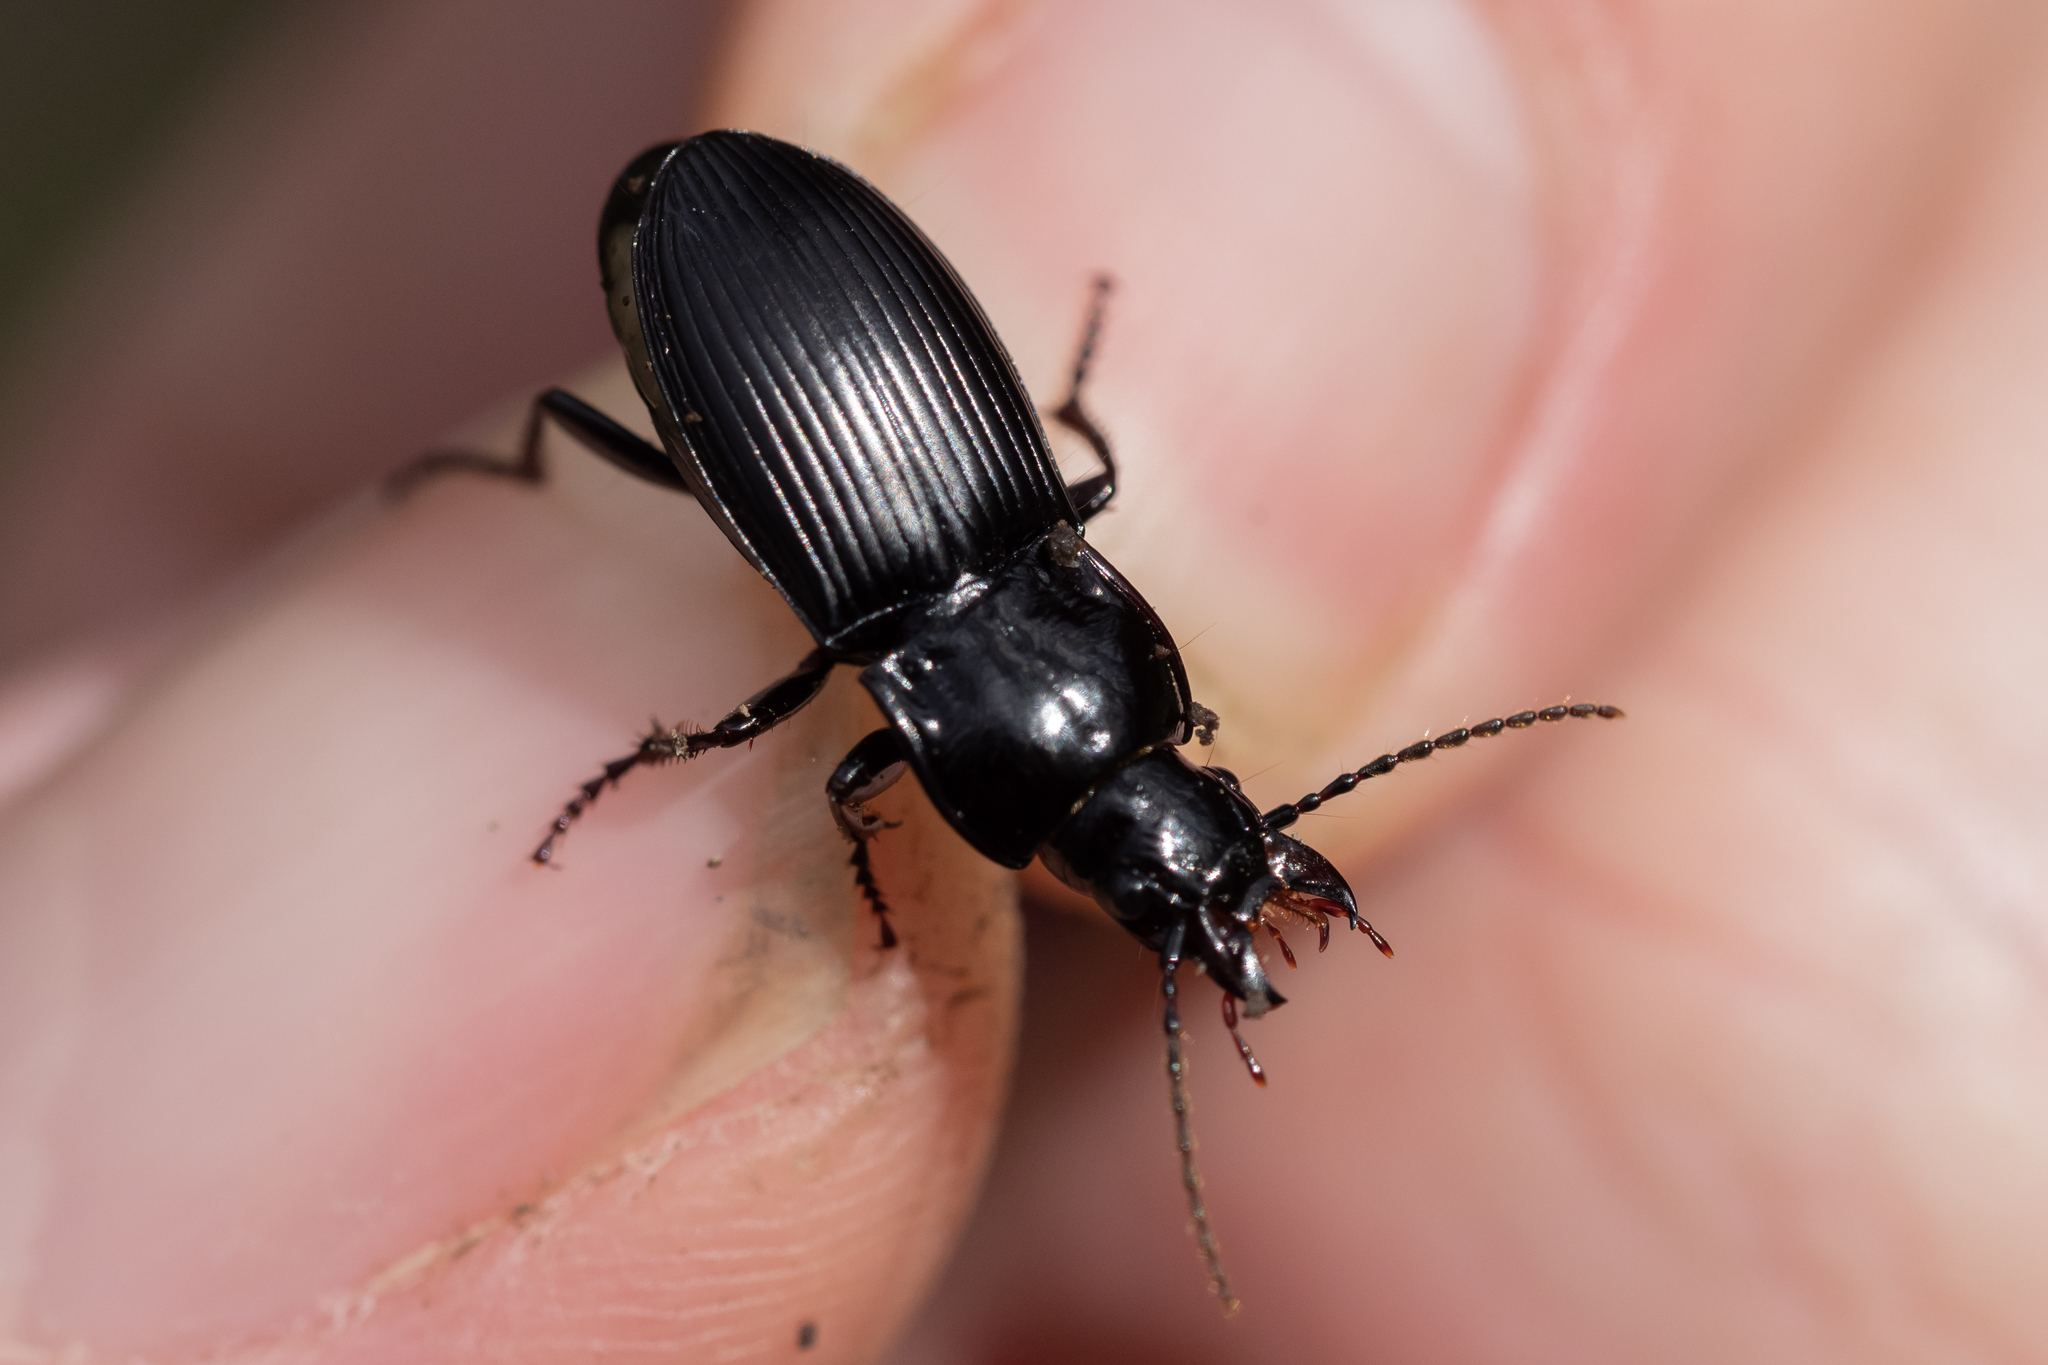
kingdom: Animalia
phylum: Arthropoda
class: Insecta
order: Coleoptera
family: Carabidae
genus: Abax
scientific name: Abax parallelus
